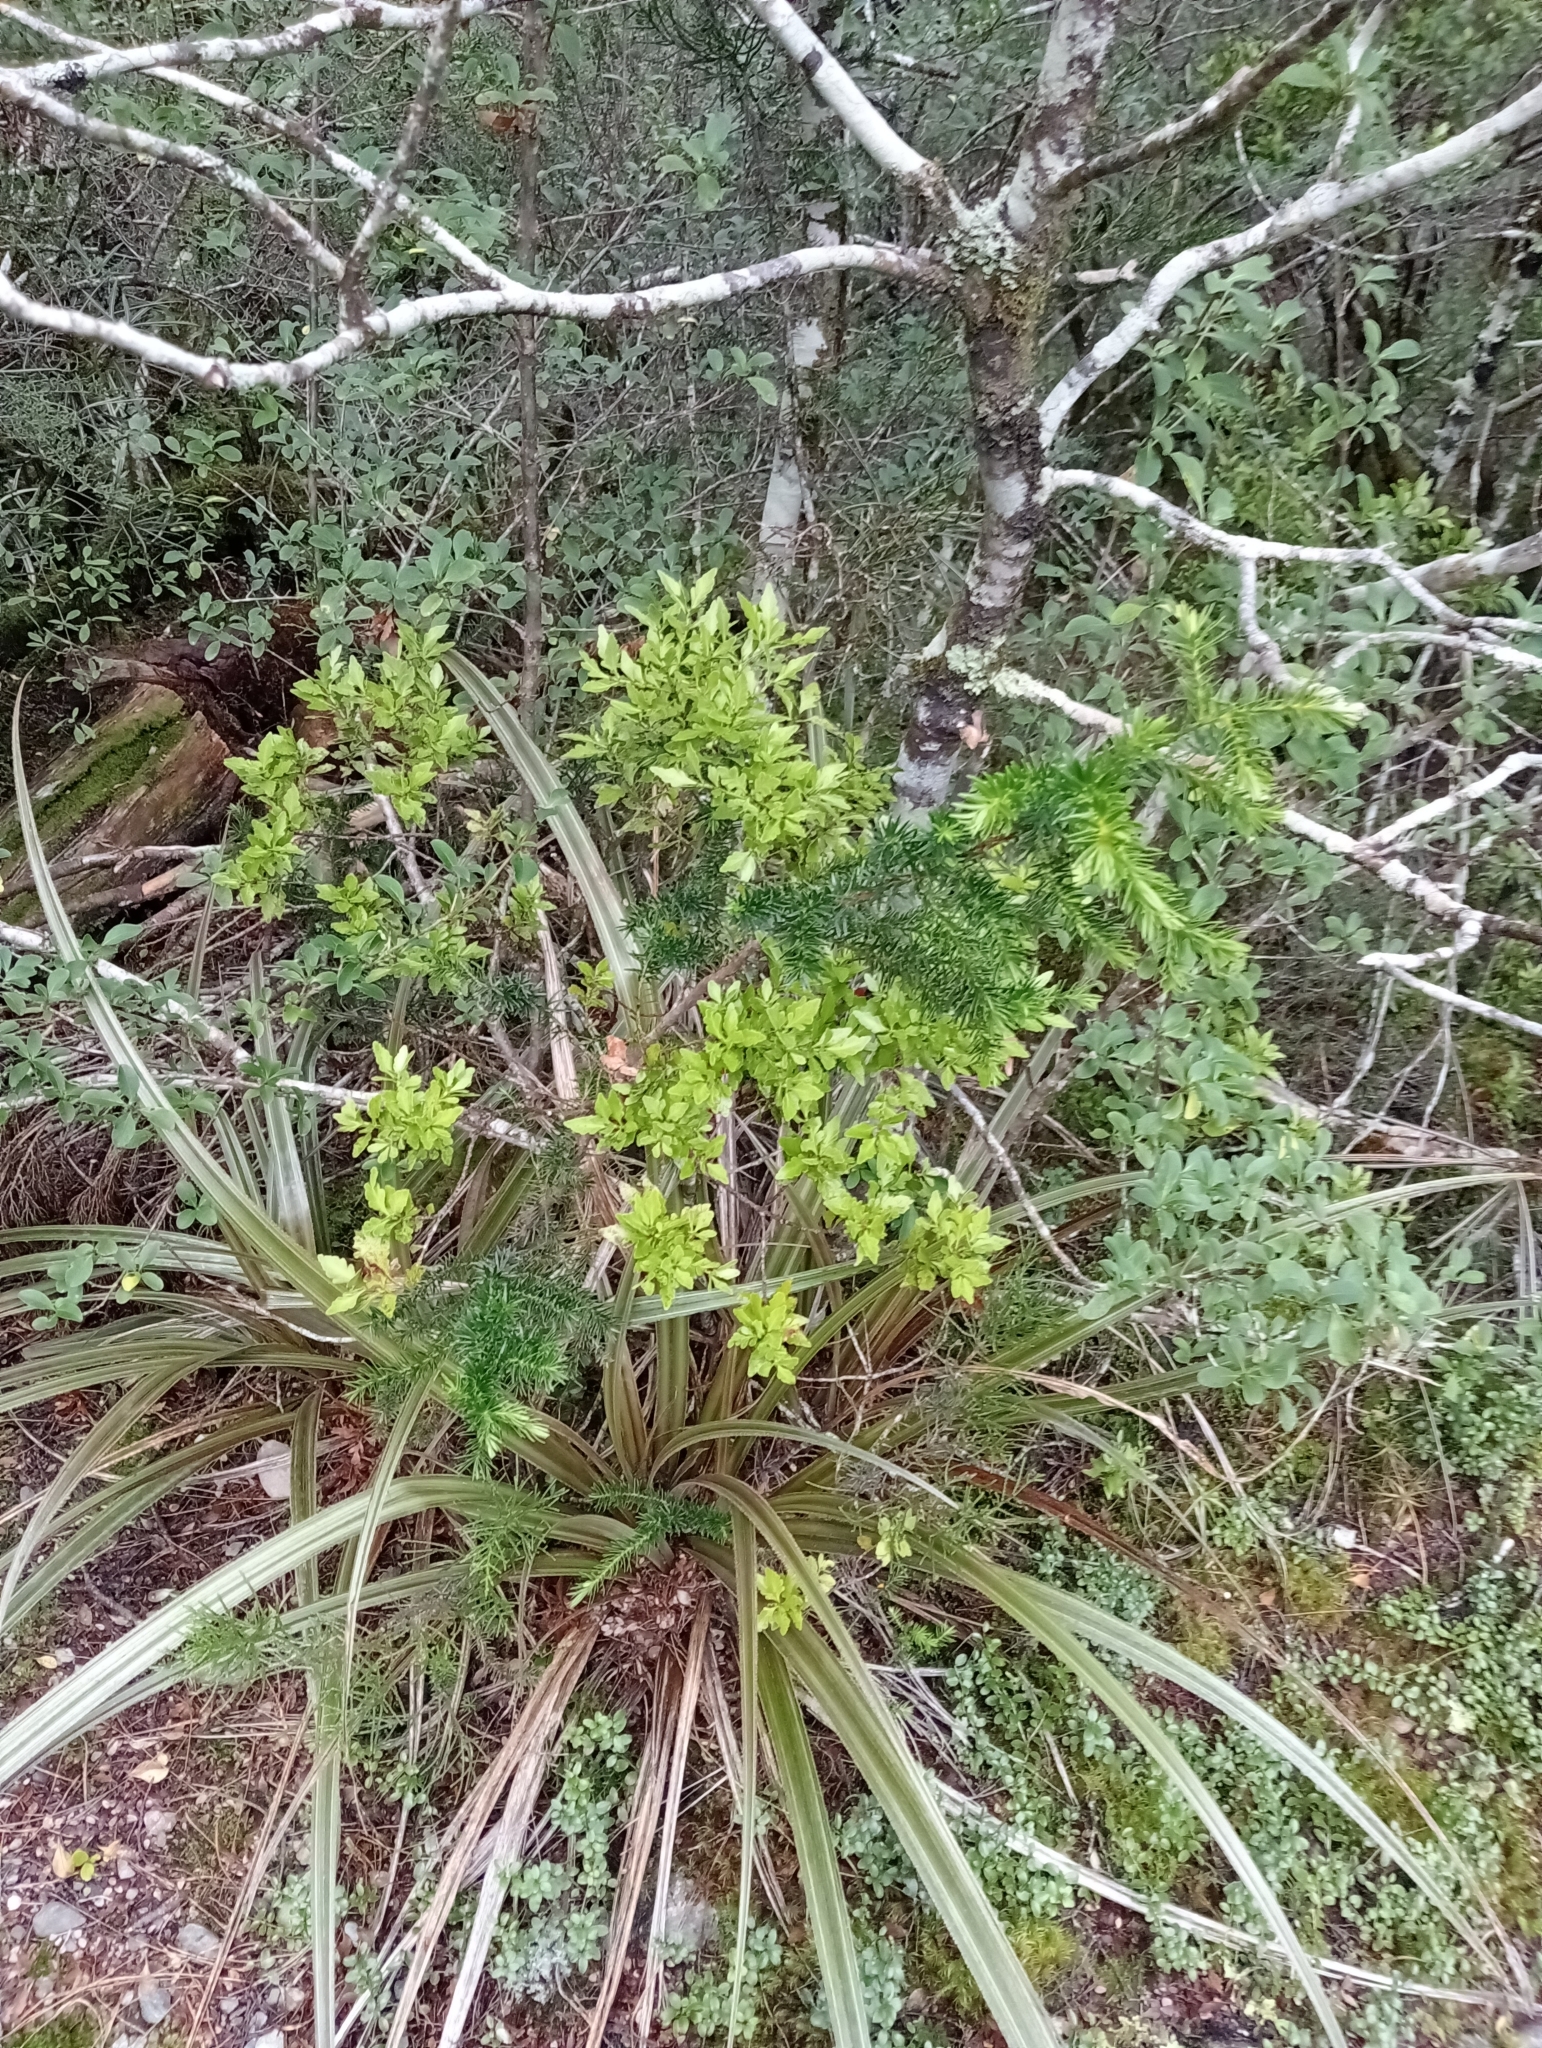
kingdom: Plantae
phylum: Tracheophyta
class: Pinopsida
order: Pinales
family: Podocarpaceae
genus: Halocarpus
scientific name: Halocarpus biformis
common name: Alpine tarwood
